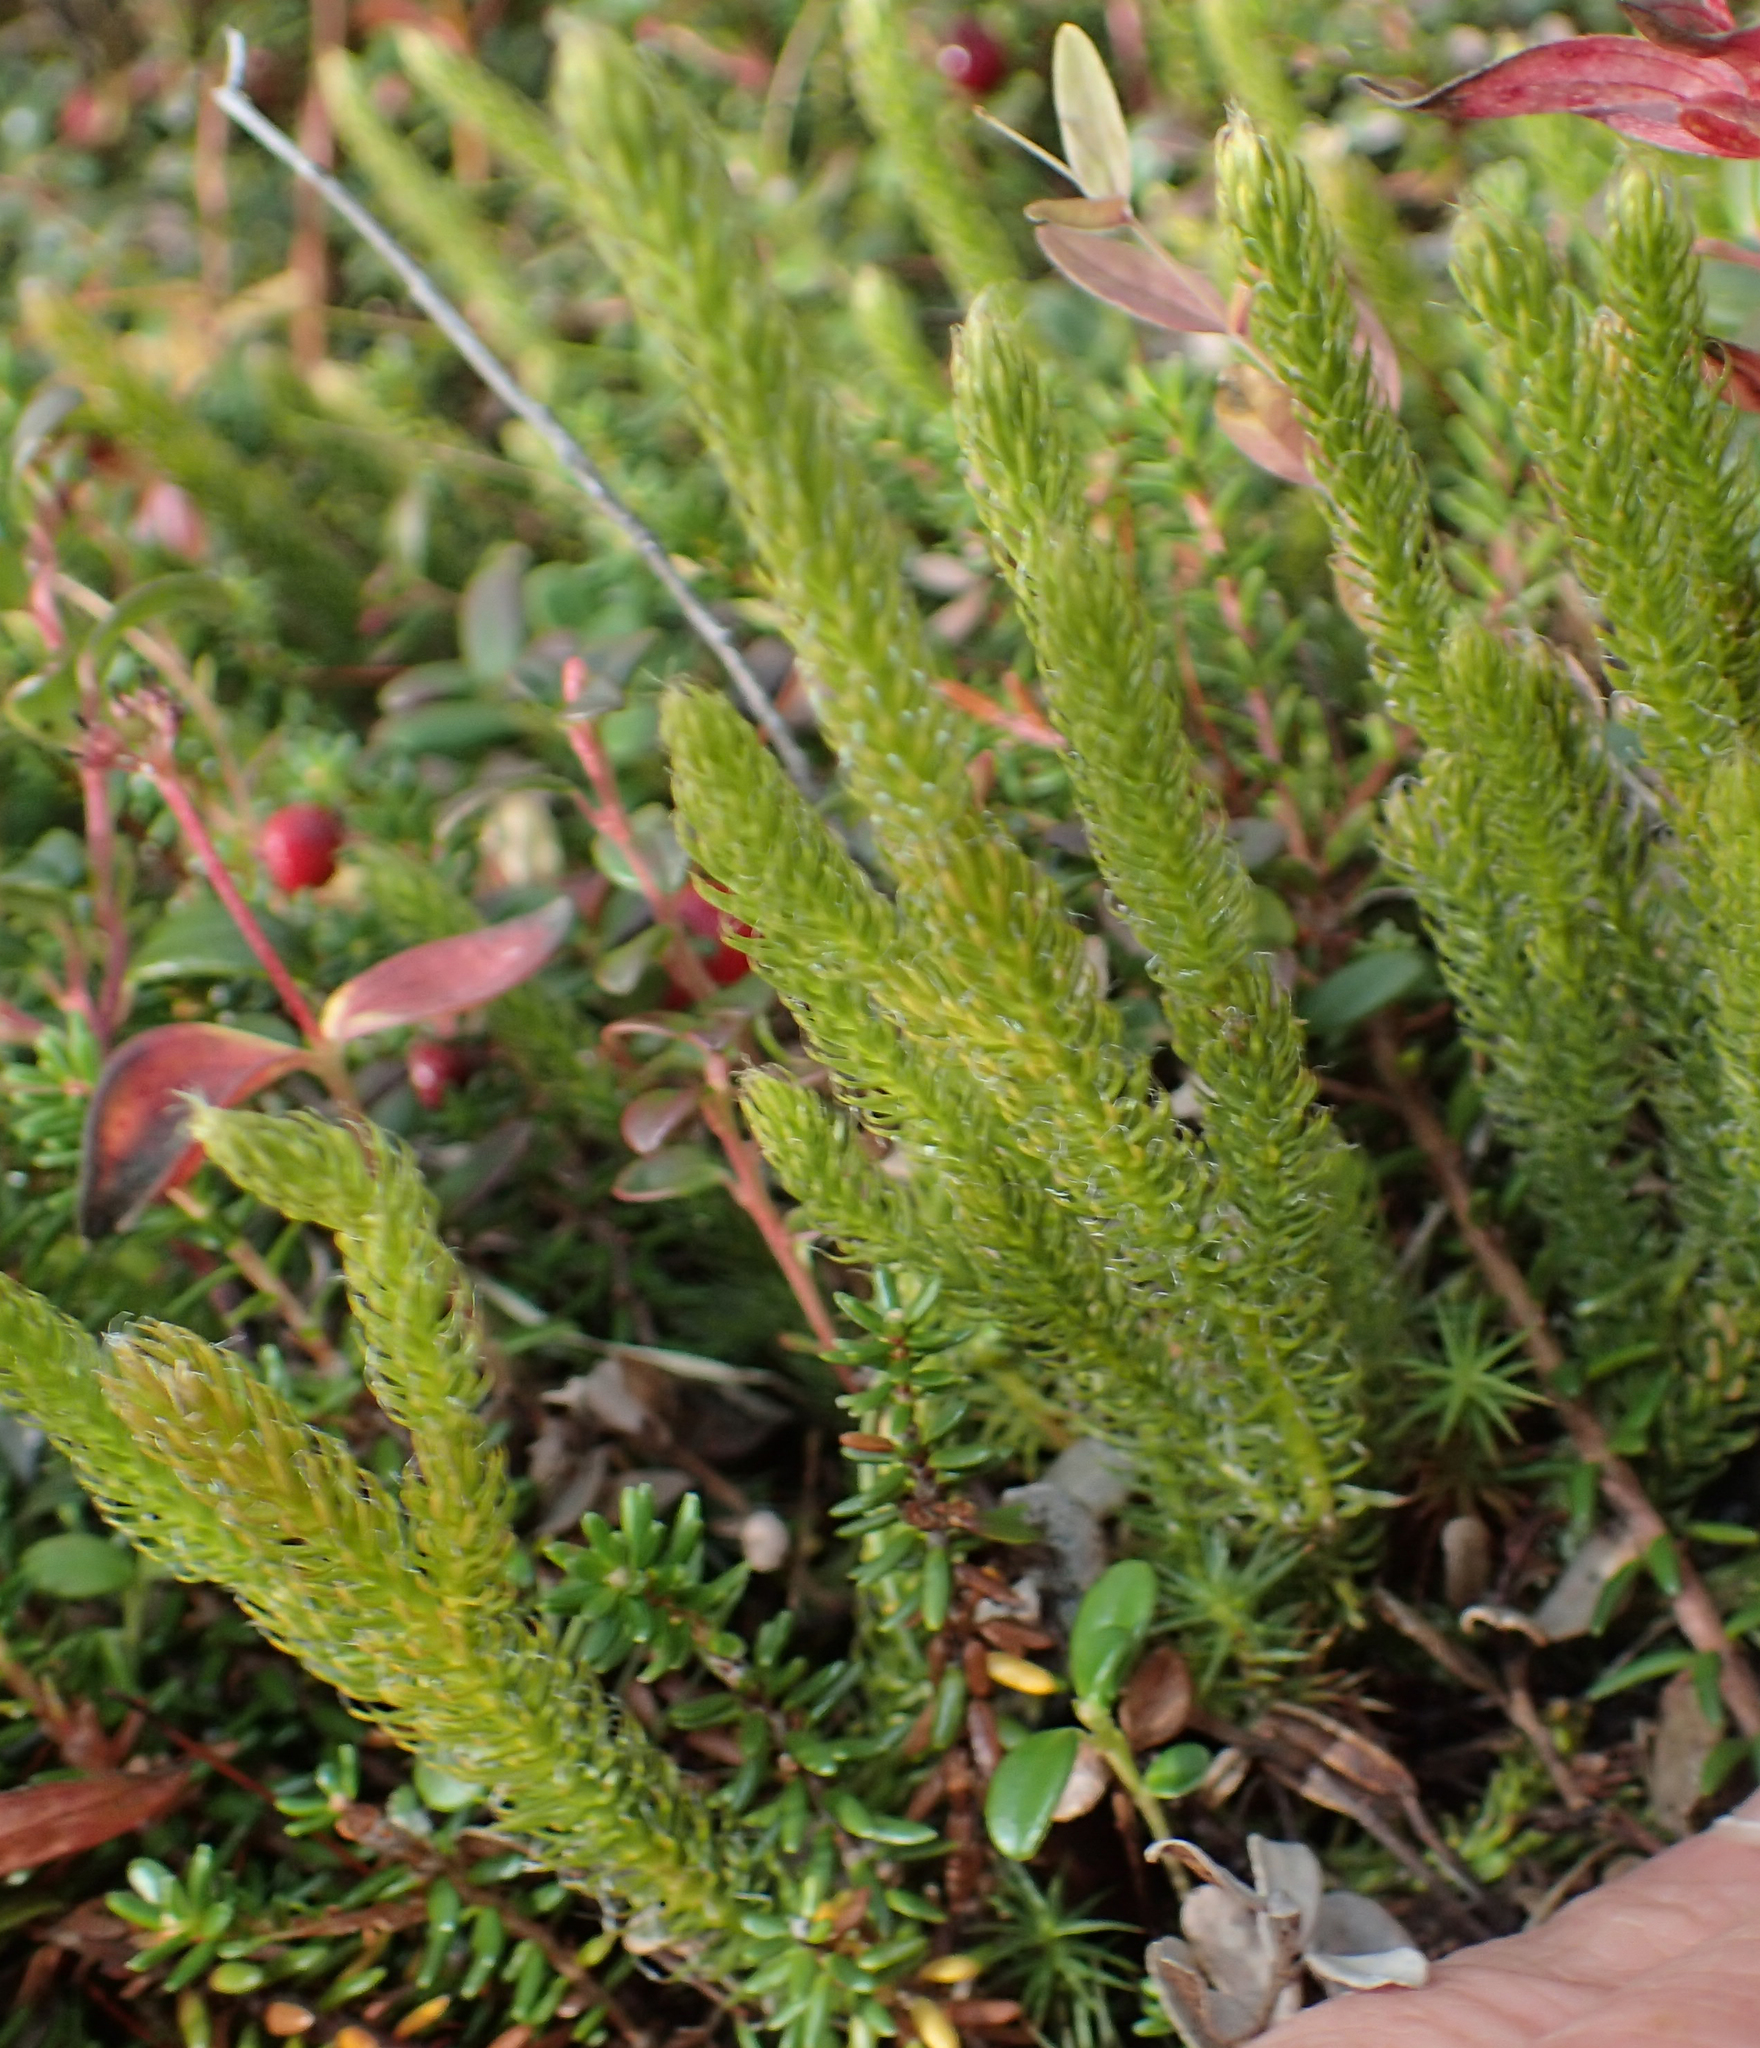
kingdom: Plantae
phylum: Tracheophyta
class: Lycopodiopsida
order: Lycopodiales
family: Lycopodiaceae
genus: Spinulum
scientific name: Spinulum annotinum
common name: Interrupted club-moss
